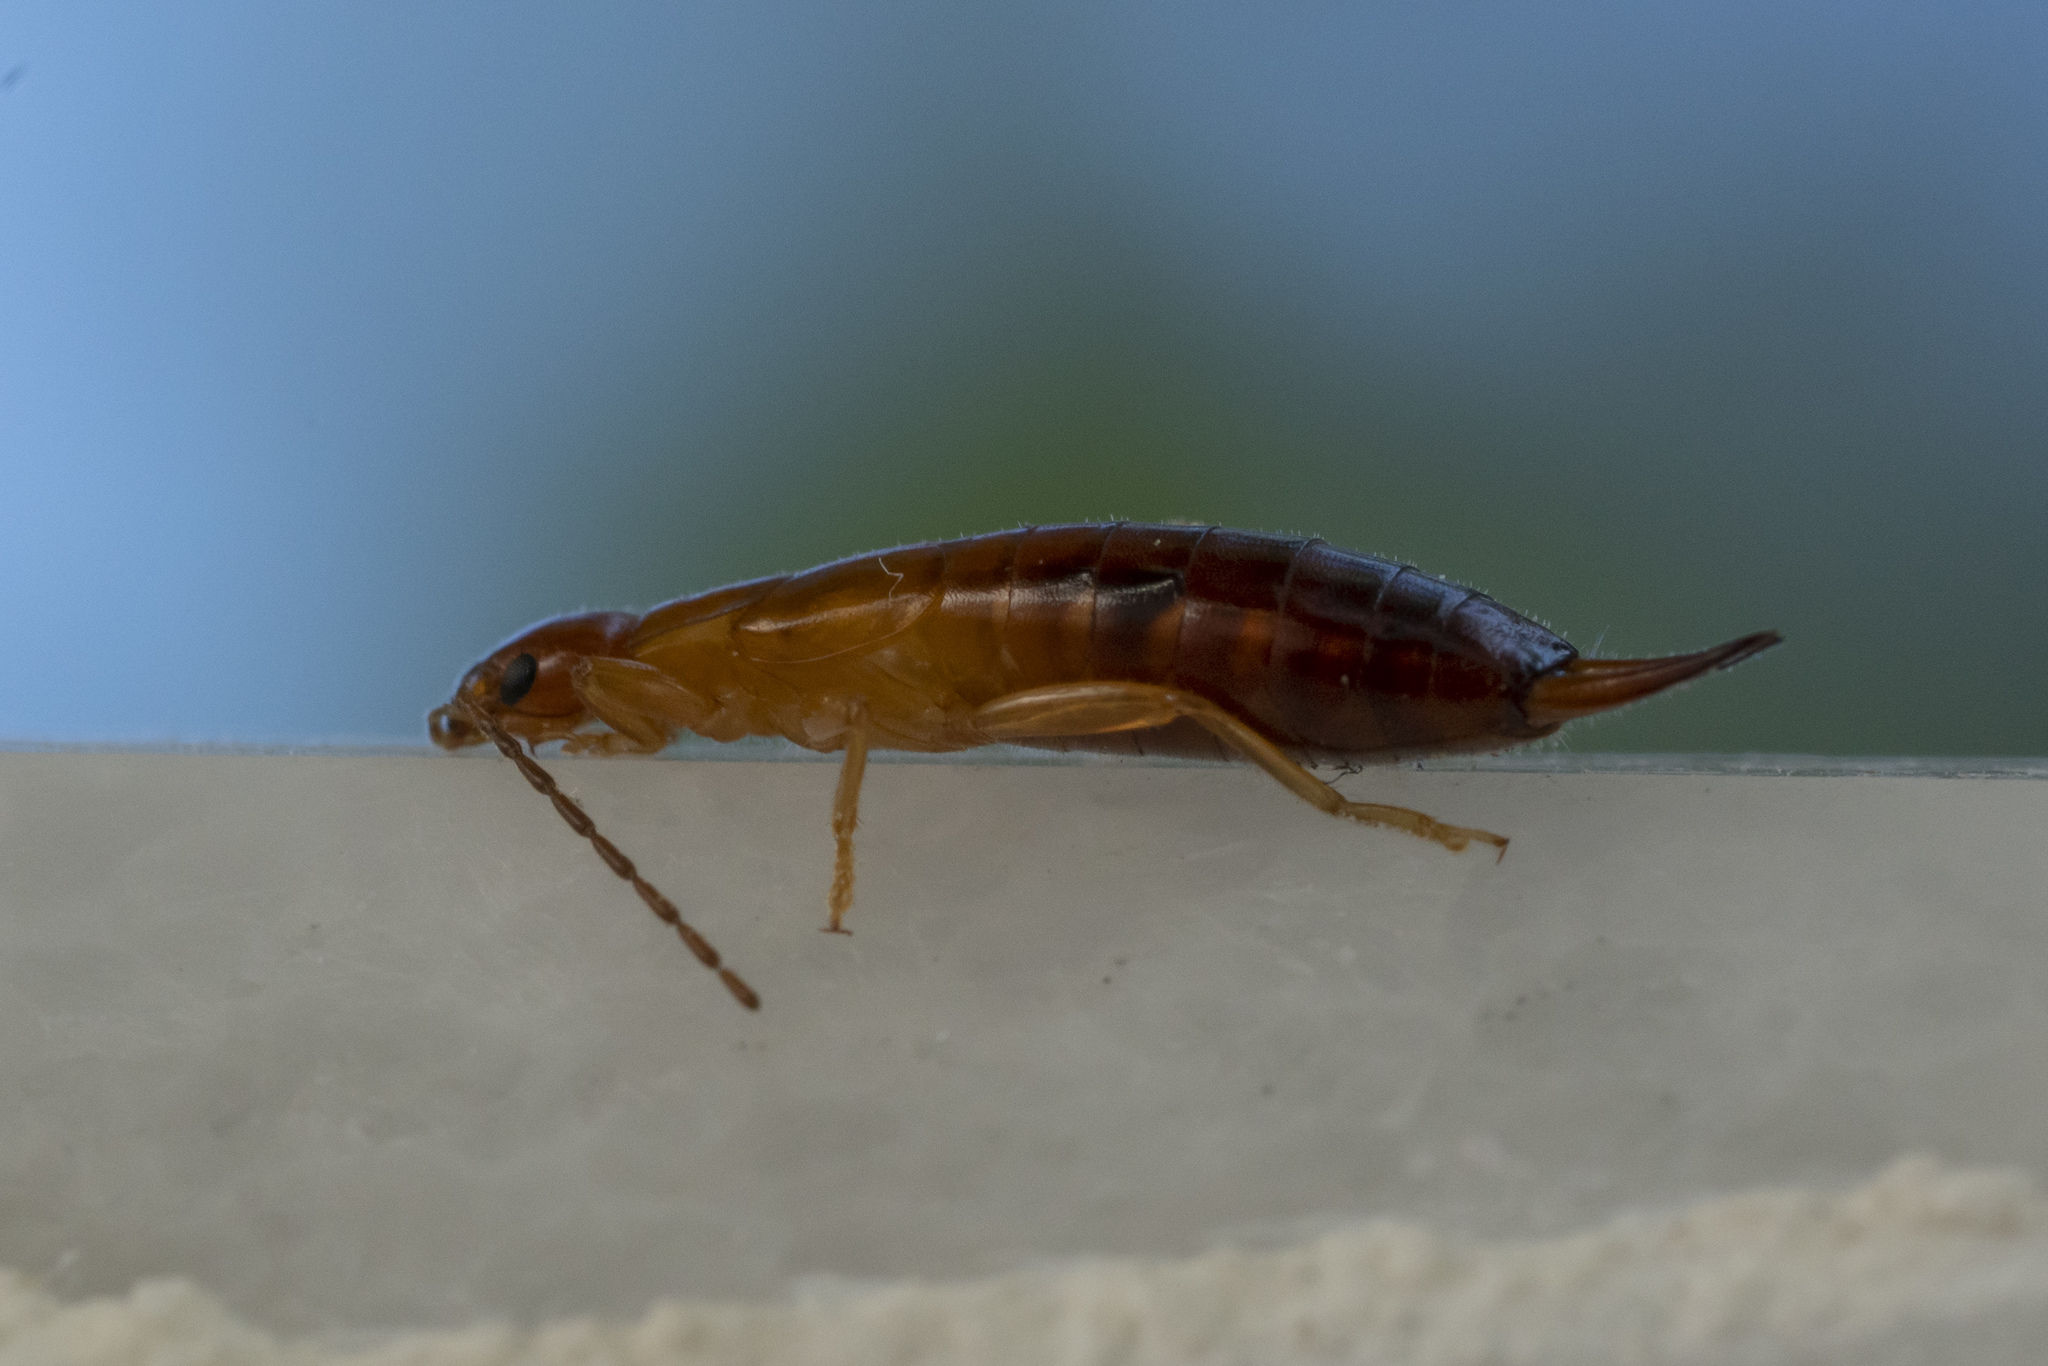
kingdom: Animalia
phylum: Arthropoda
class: Insecta
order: Dermaptera
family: Forficulidae
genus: Forficula
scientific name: Forficula aetolica
